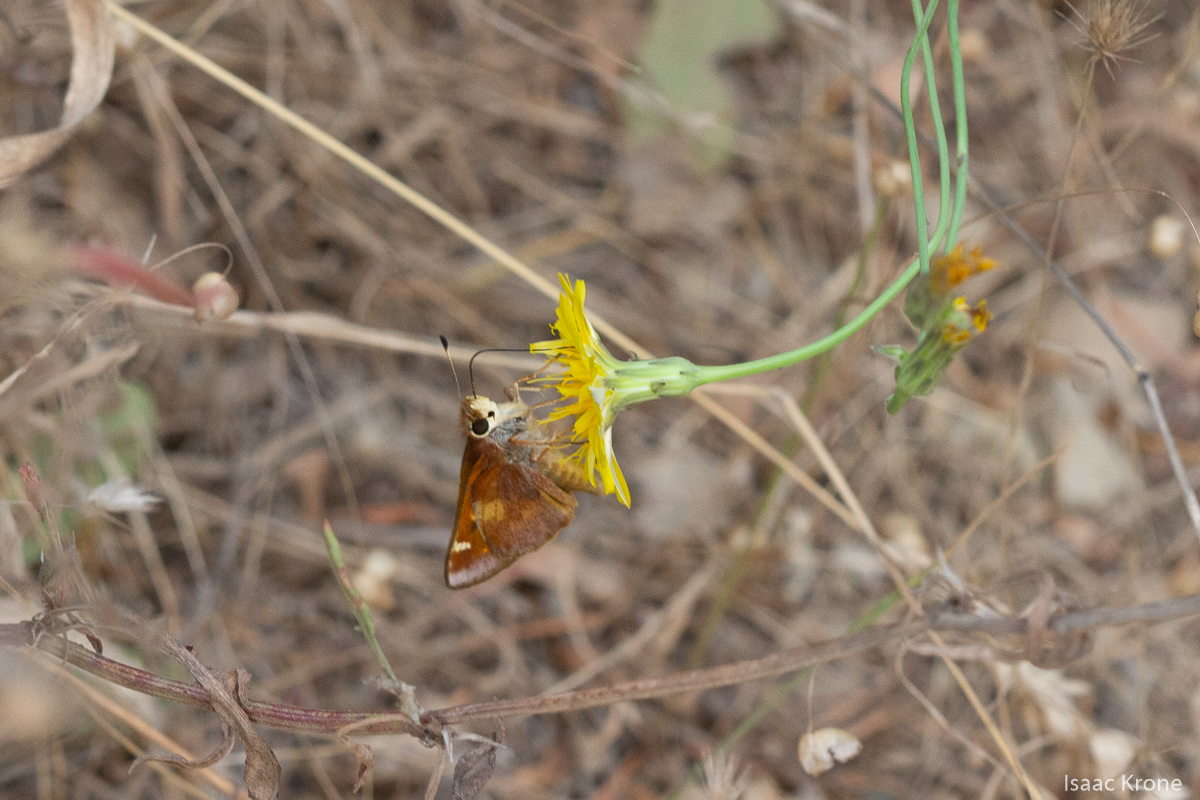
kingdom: Animalia
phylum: Arthropoda
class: Insecta
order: Lepidoptera
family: Hesperiidae
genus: Lon
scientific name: Lon melane
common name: Umber skipper
